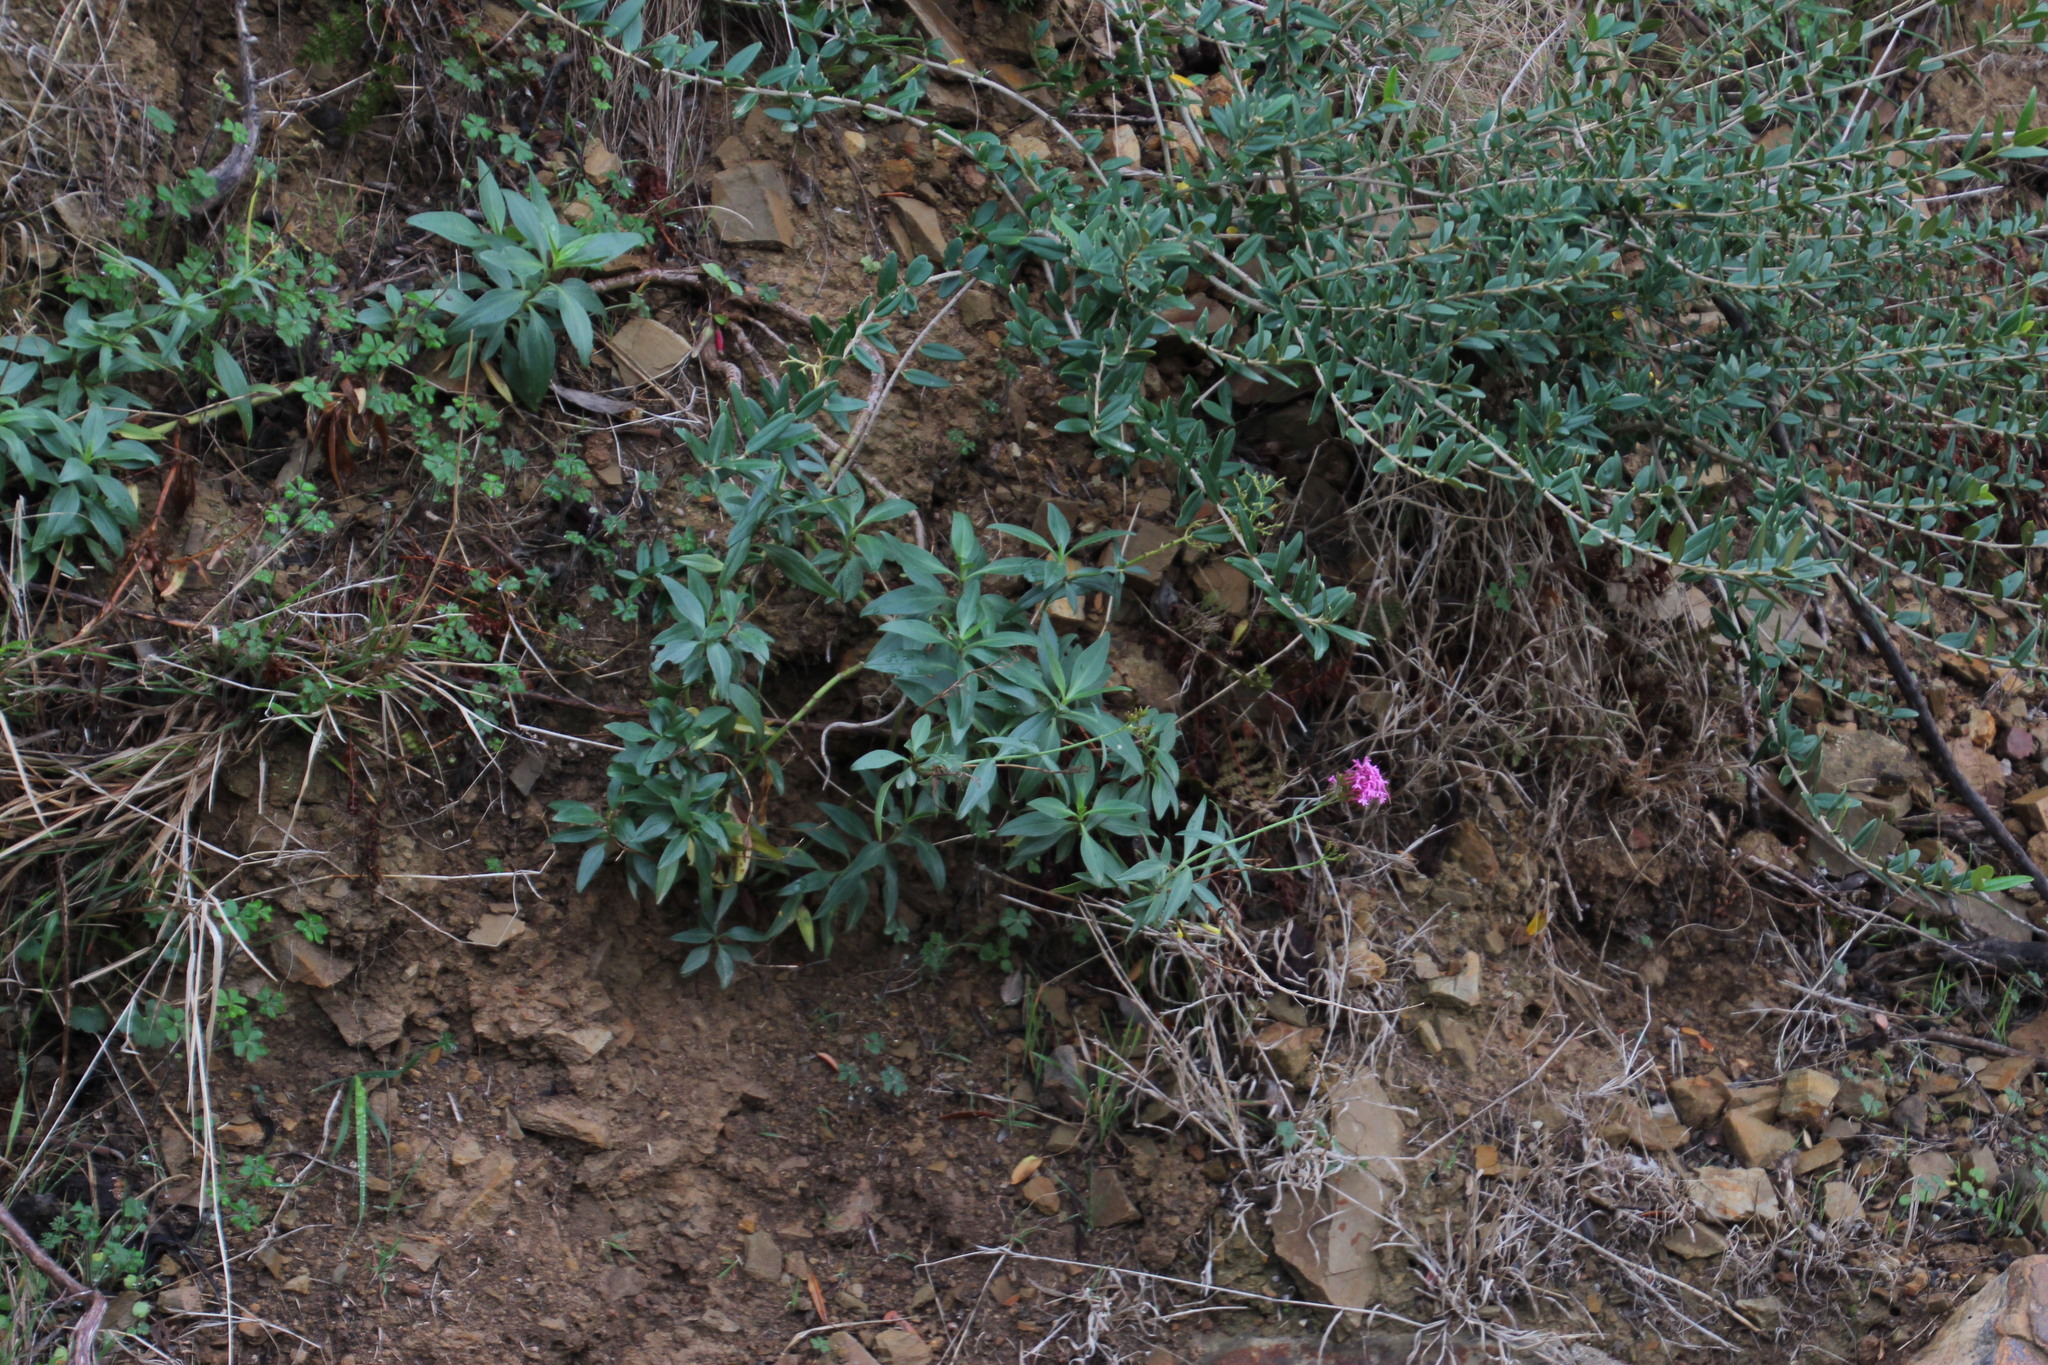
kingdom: Plantae
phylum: Tracheophyta
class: Magnoliopsida
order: Dipsacales
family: Caprifoliaceae
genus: Centranthus
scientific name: Centranthus ruber
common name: Red valerian
